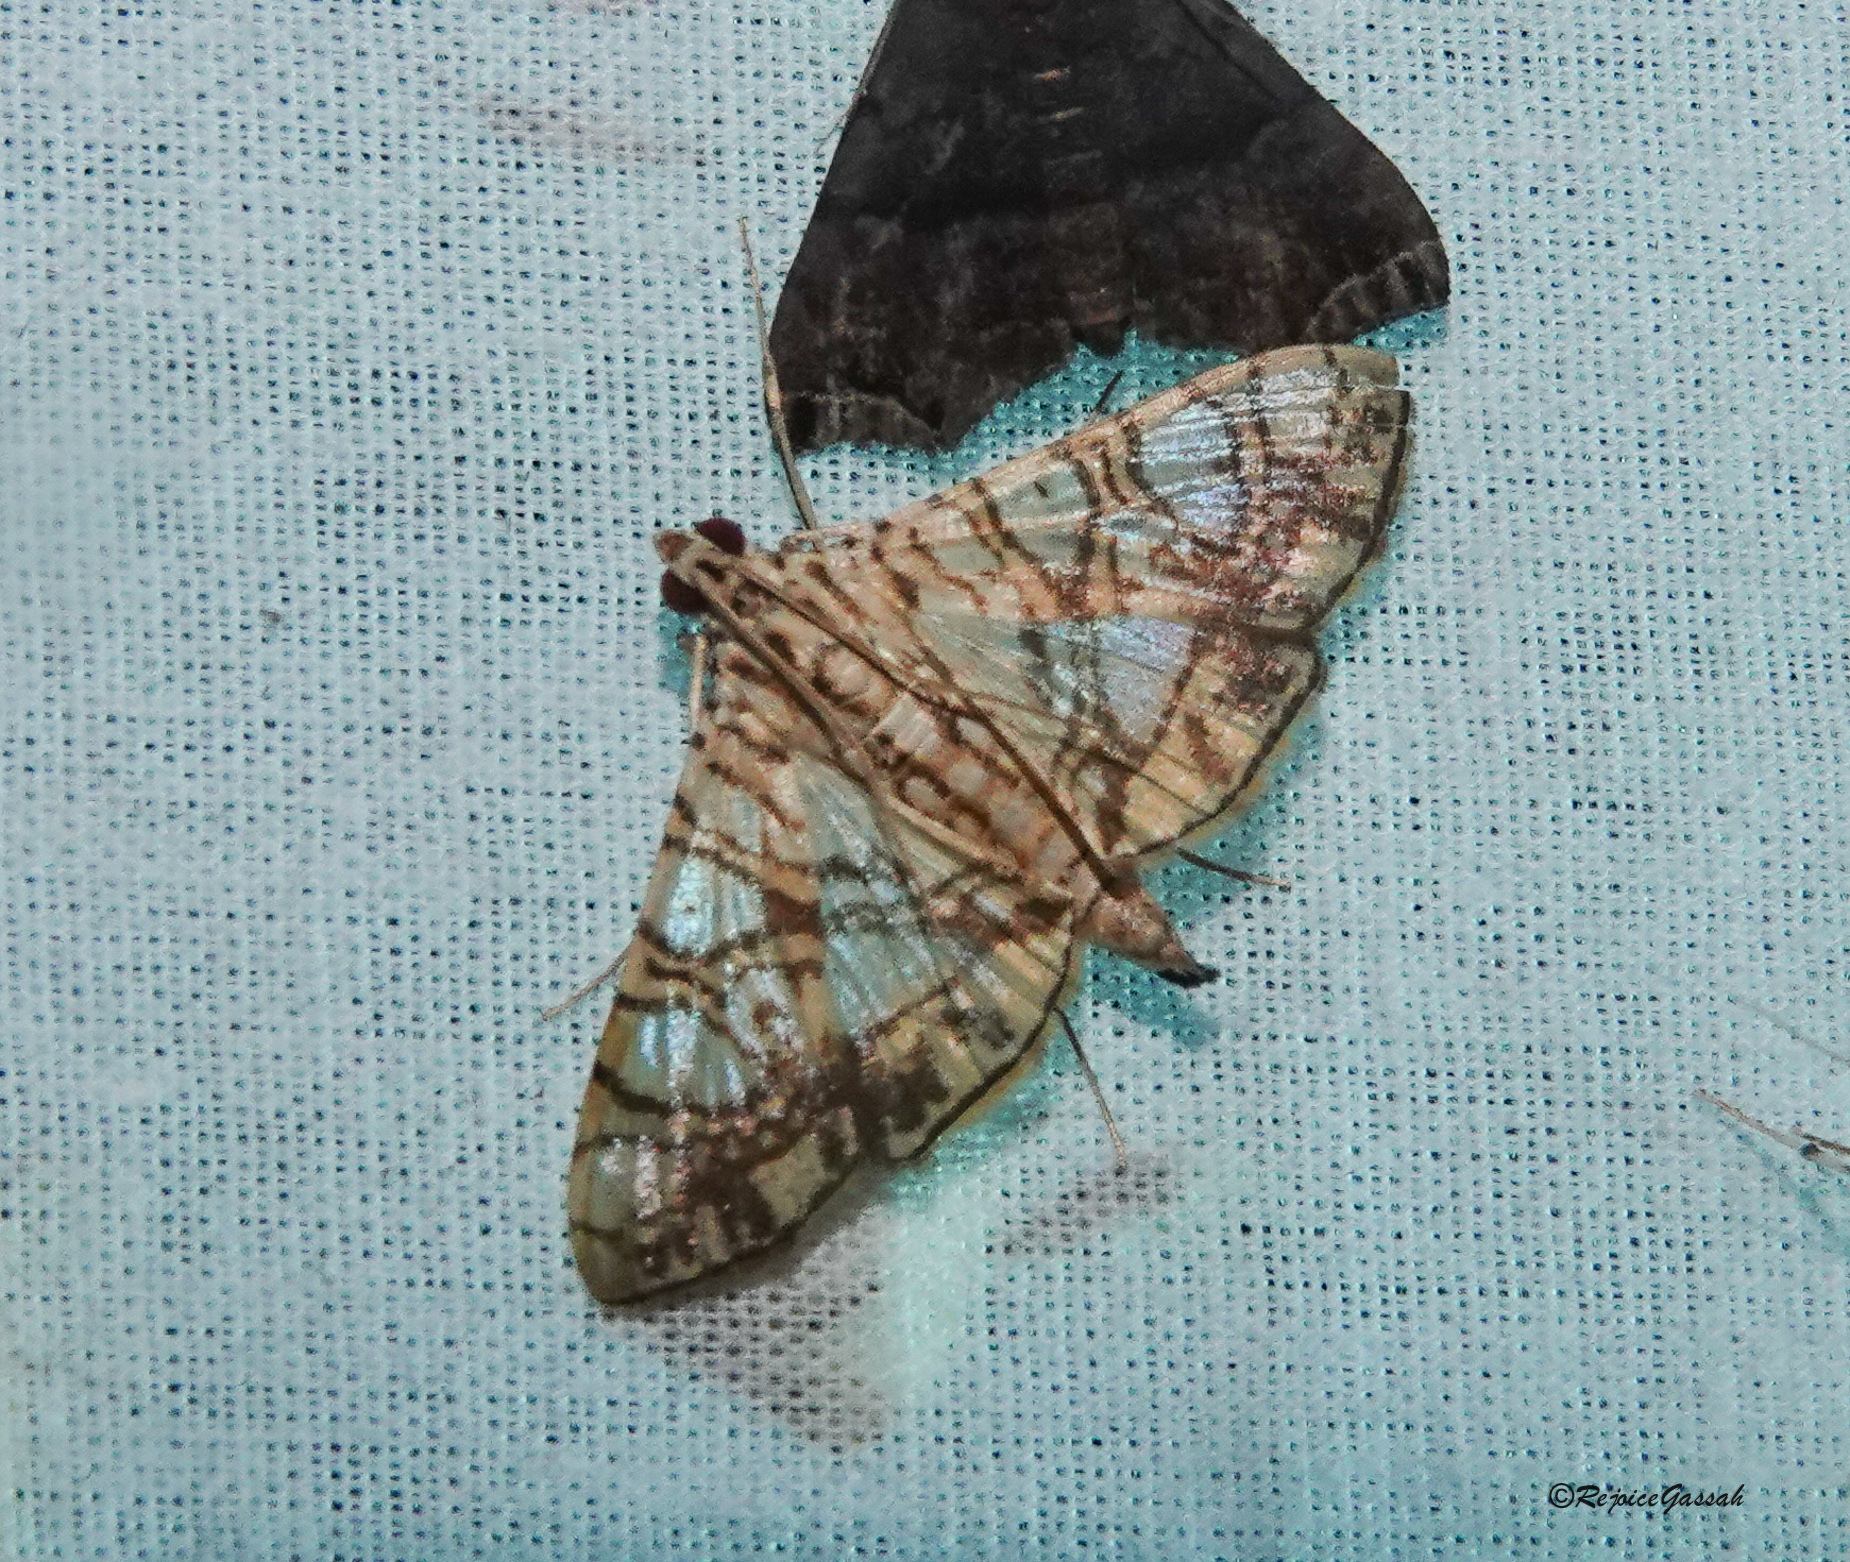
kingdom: Animalia
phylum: Arthropoda
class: Insecta
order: Lepidoptera
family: Crambidae
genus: Glyphodes
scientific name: Glyphodes caesalis
